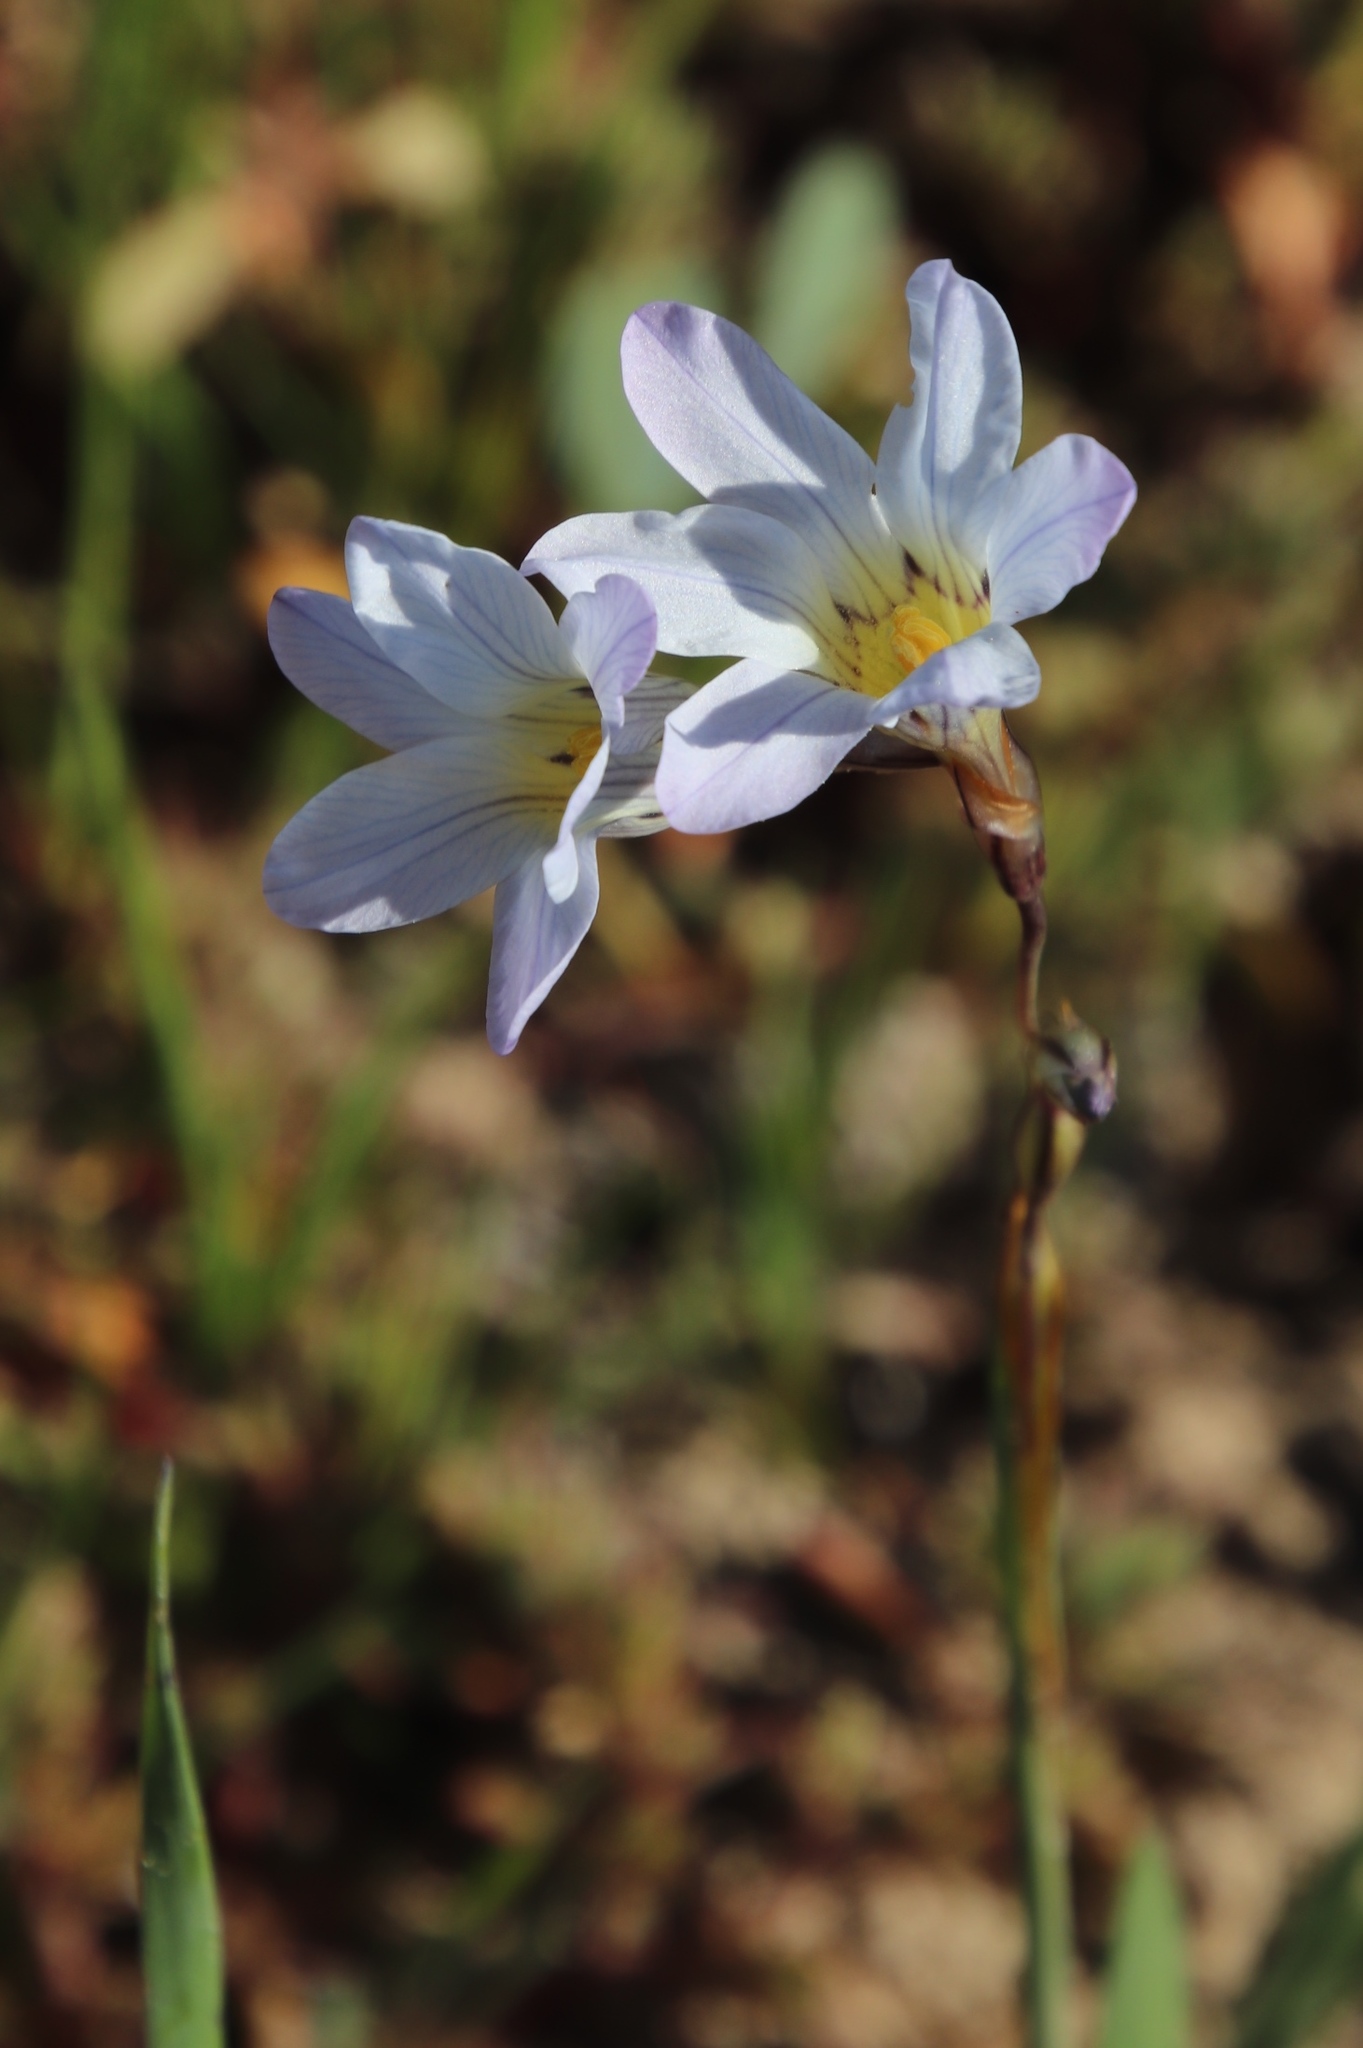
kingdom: Plantae
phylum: Tracheophyta
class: Liliopsida
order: Asparagales
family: Iridaceae
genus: Ixia
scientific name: Ixia rapunculoides
